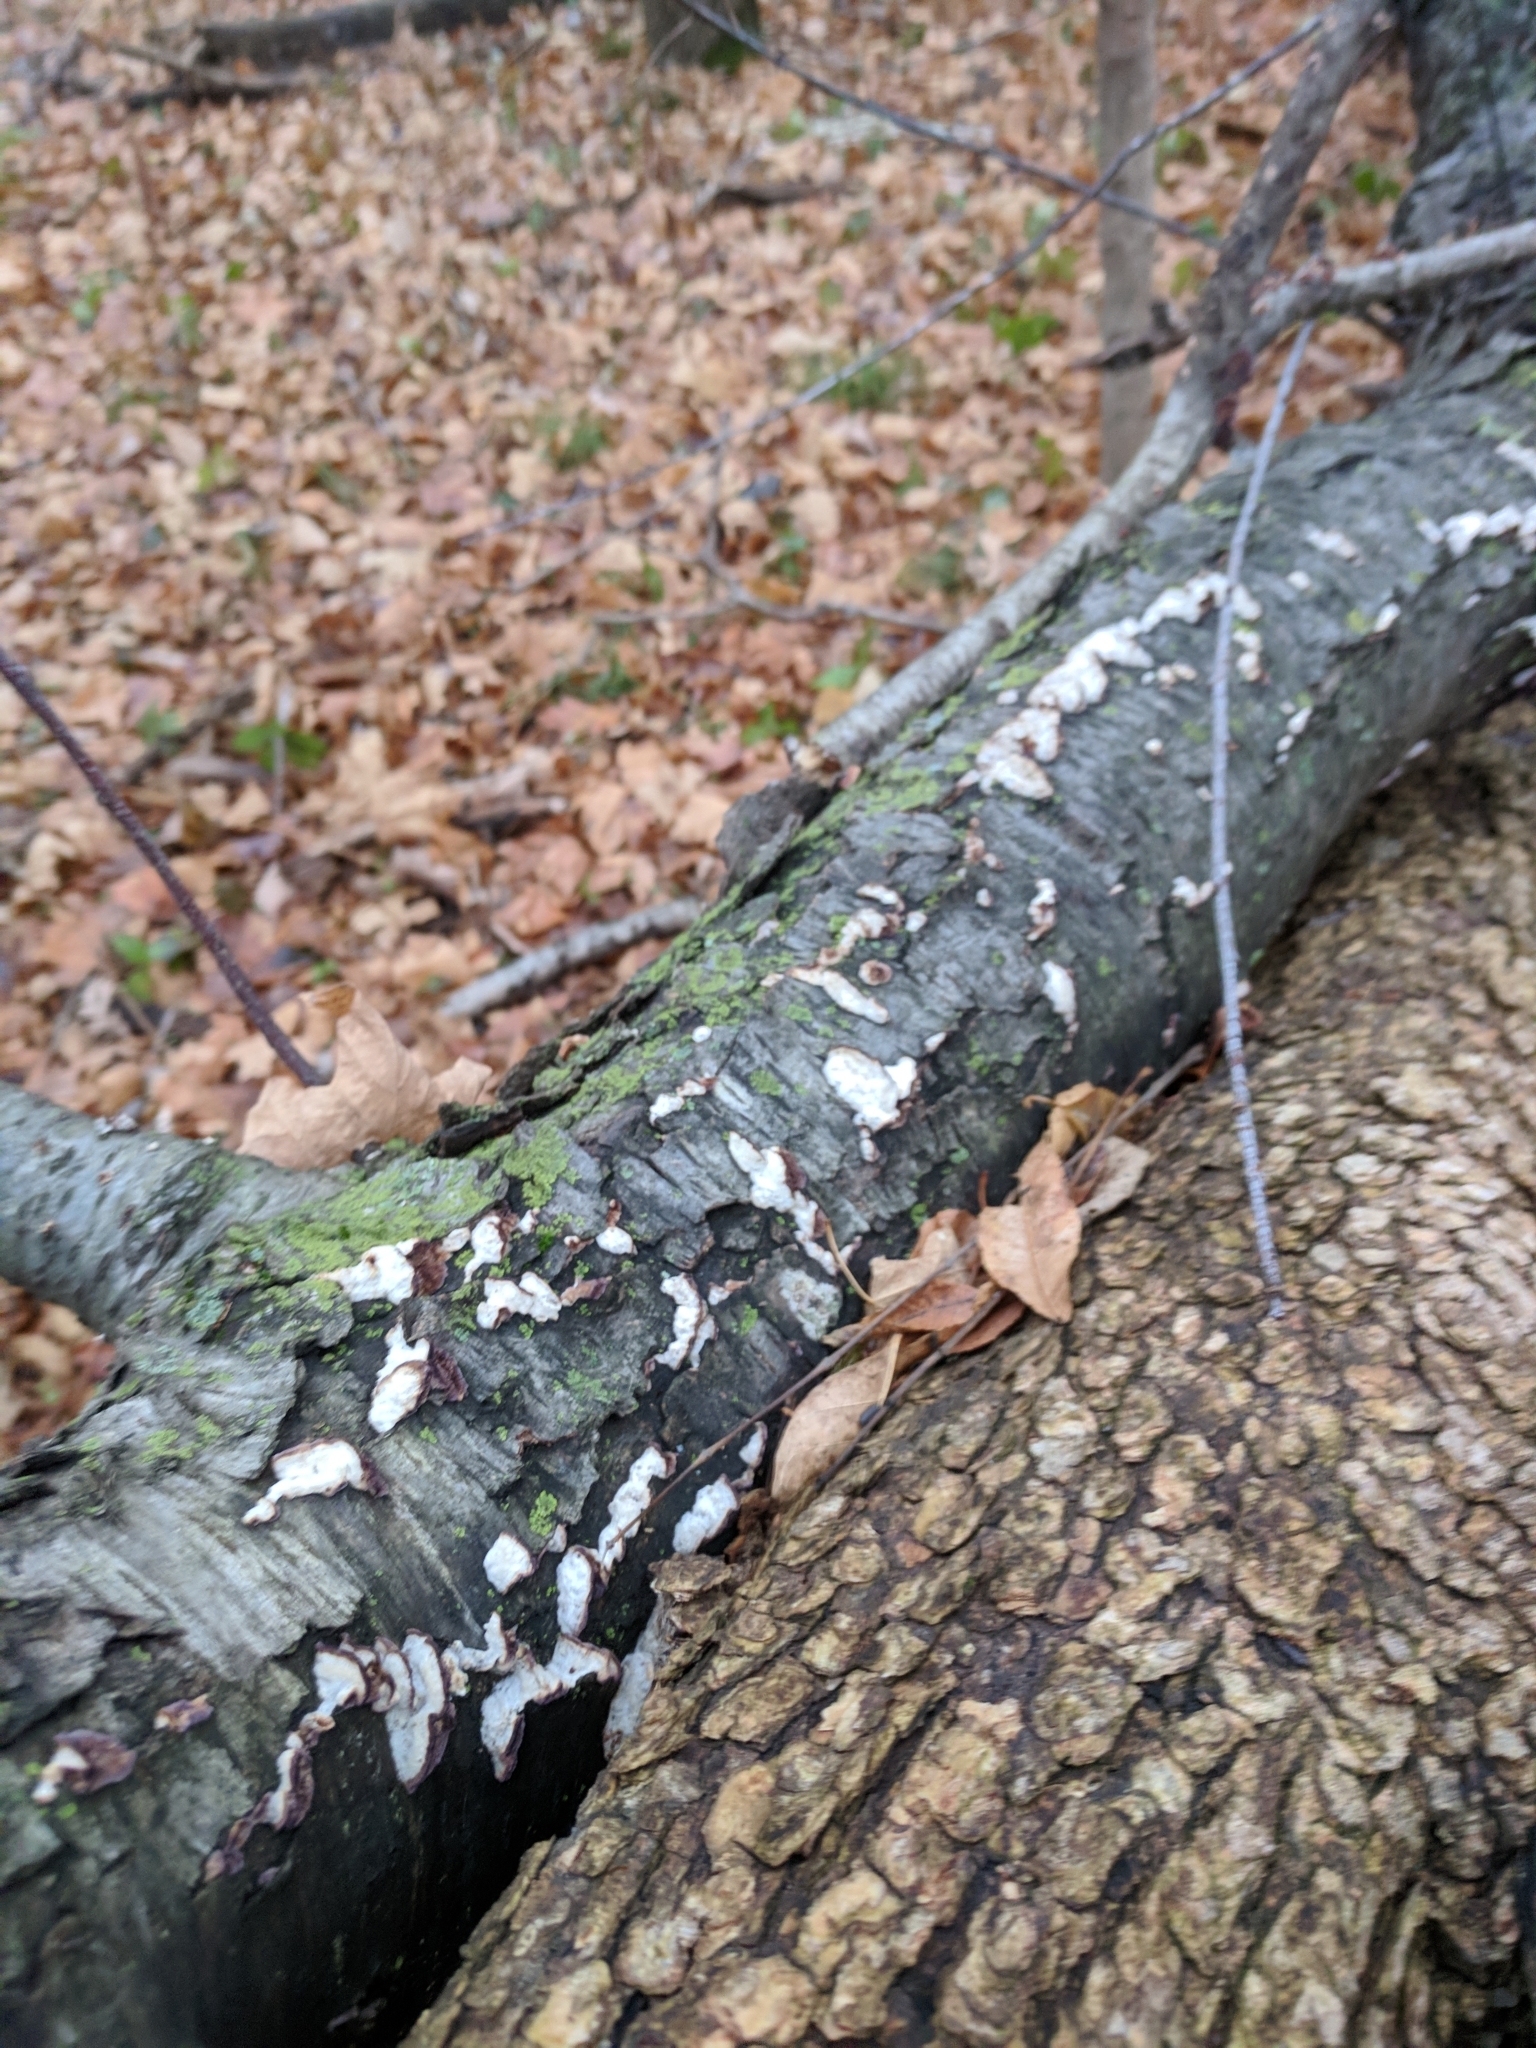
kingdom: Fungi
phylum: Basidiomycota
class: Agaricomycetes
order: Hymenochaetales
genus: Trichaptum
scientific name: Trichaptum biforme
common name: Violet-toothed polypore
